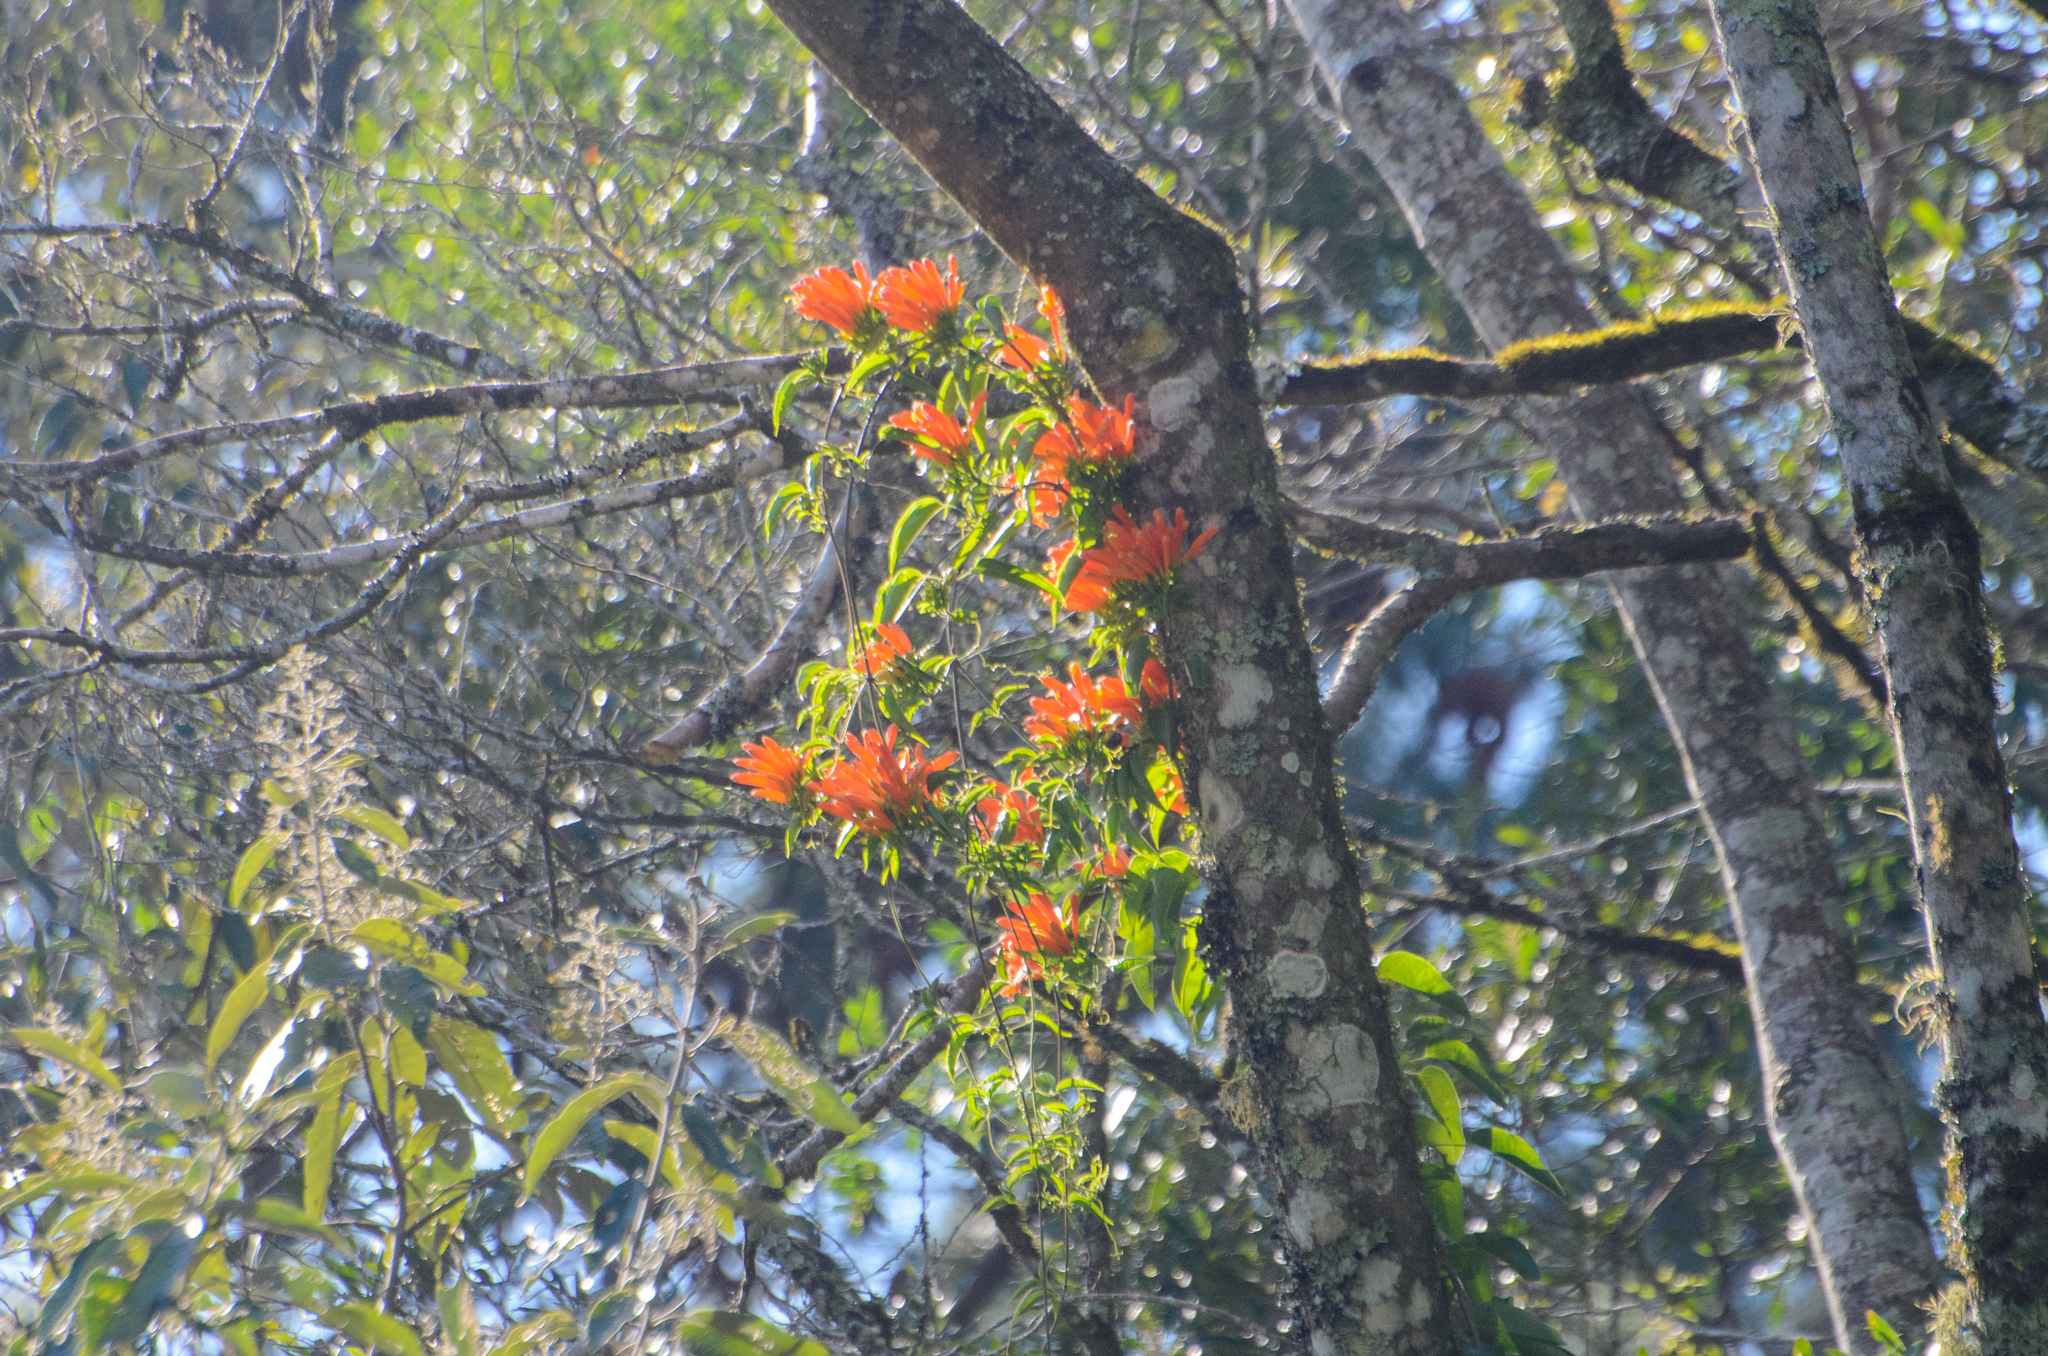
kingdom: Plantae
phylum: Tracheophyta
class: Magnoliopsida
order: Lamiales
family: Bignoniaceae
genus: Pyrostegia
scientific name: Pyrostegia venusta
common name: Flamevine
